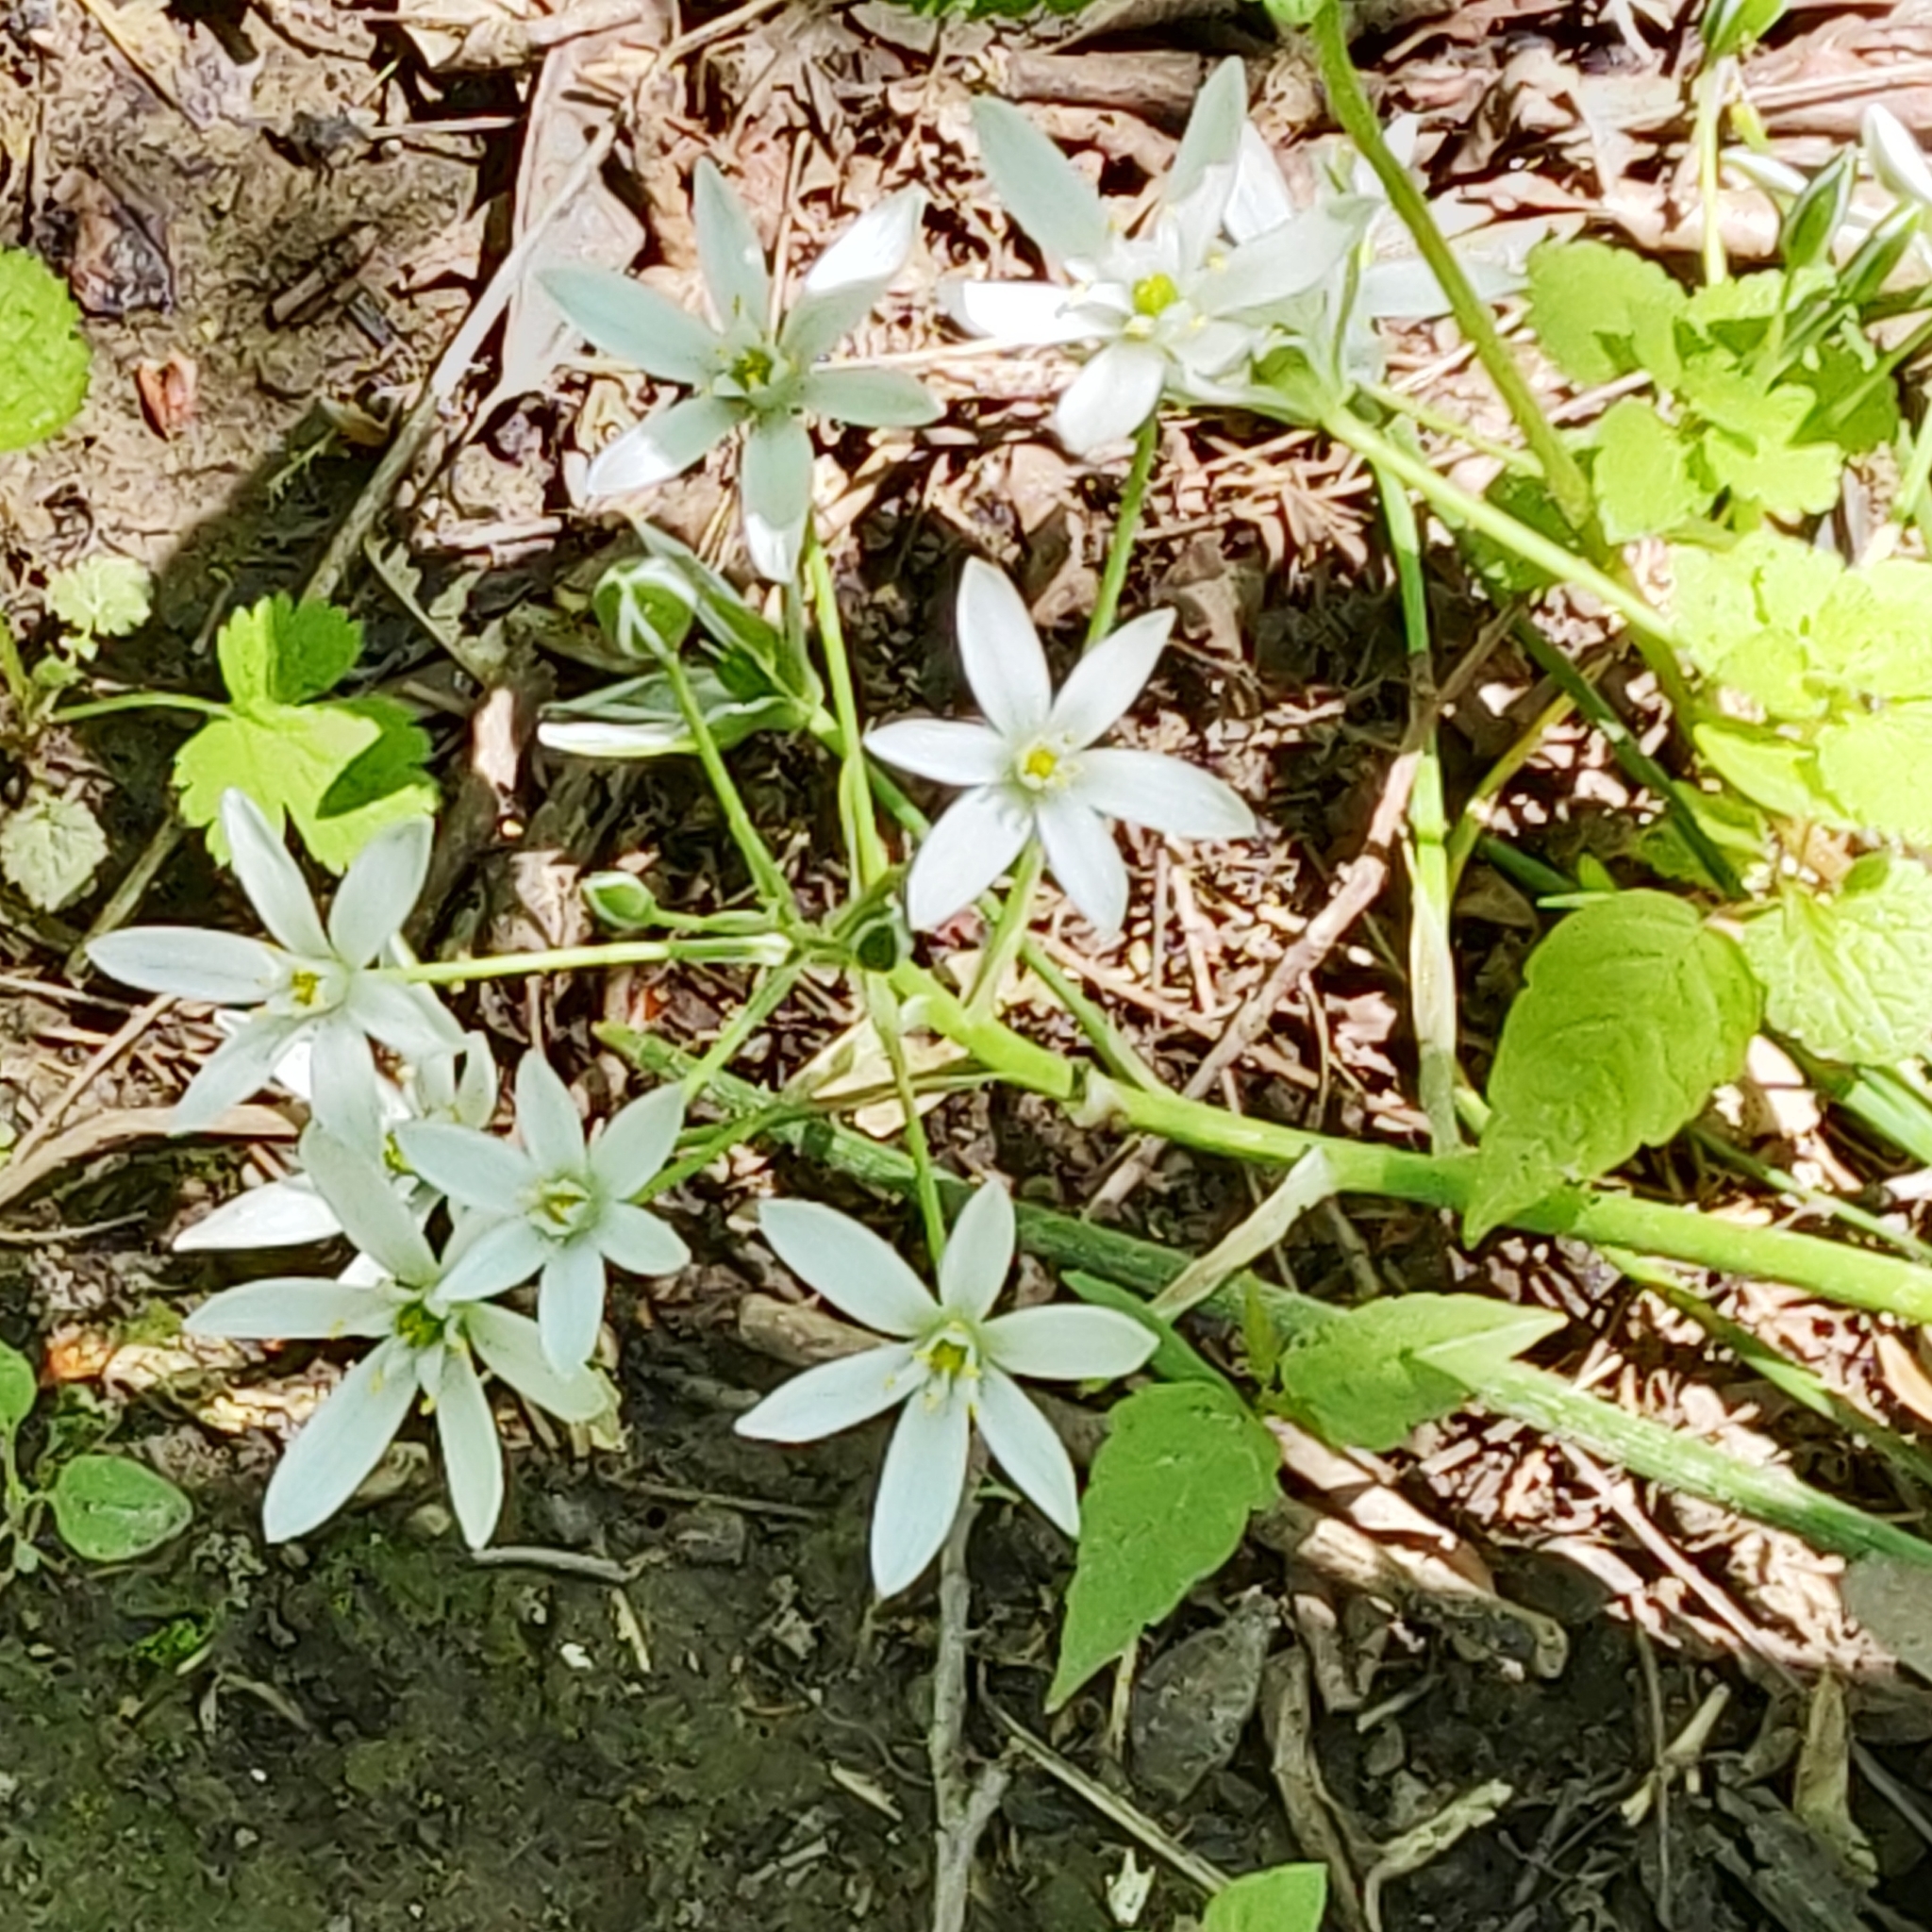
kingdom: Plantae
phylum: Tracheophyta
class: Liliopsida
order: Asparagales
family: Asparagaceae
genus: Ornithogalum
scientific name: Ornithogalum umbellatum
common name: Garden star-of-bethlehem
